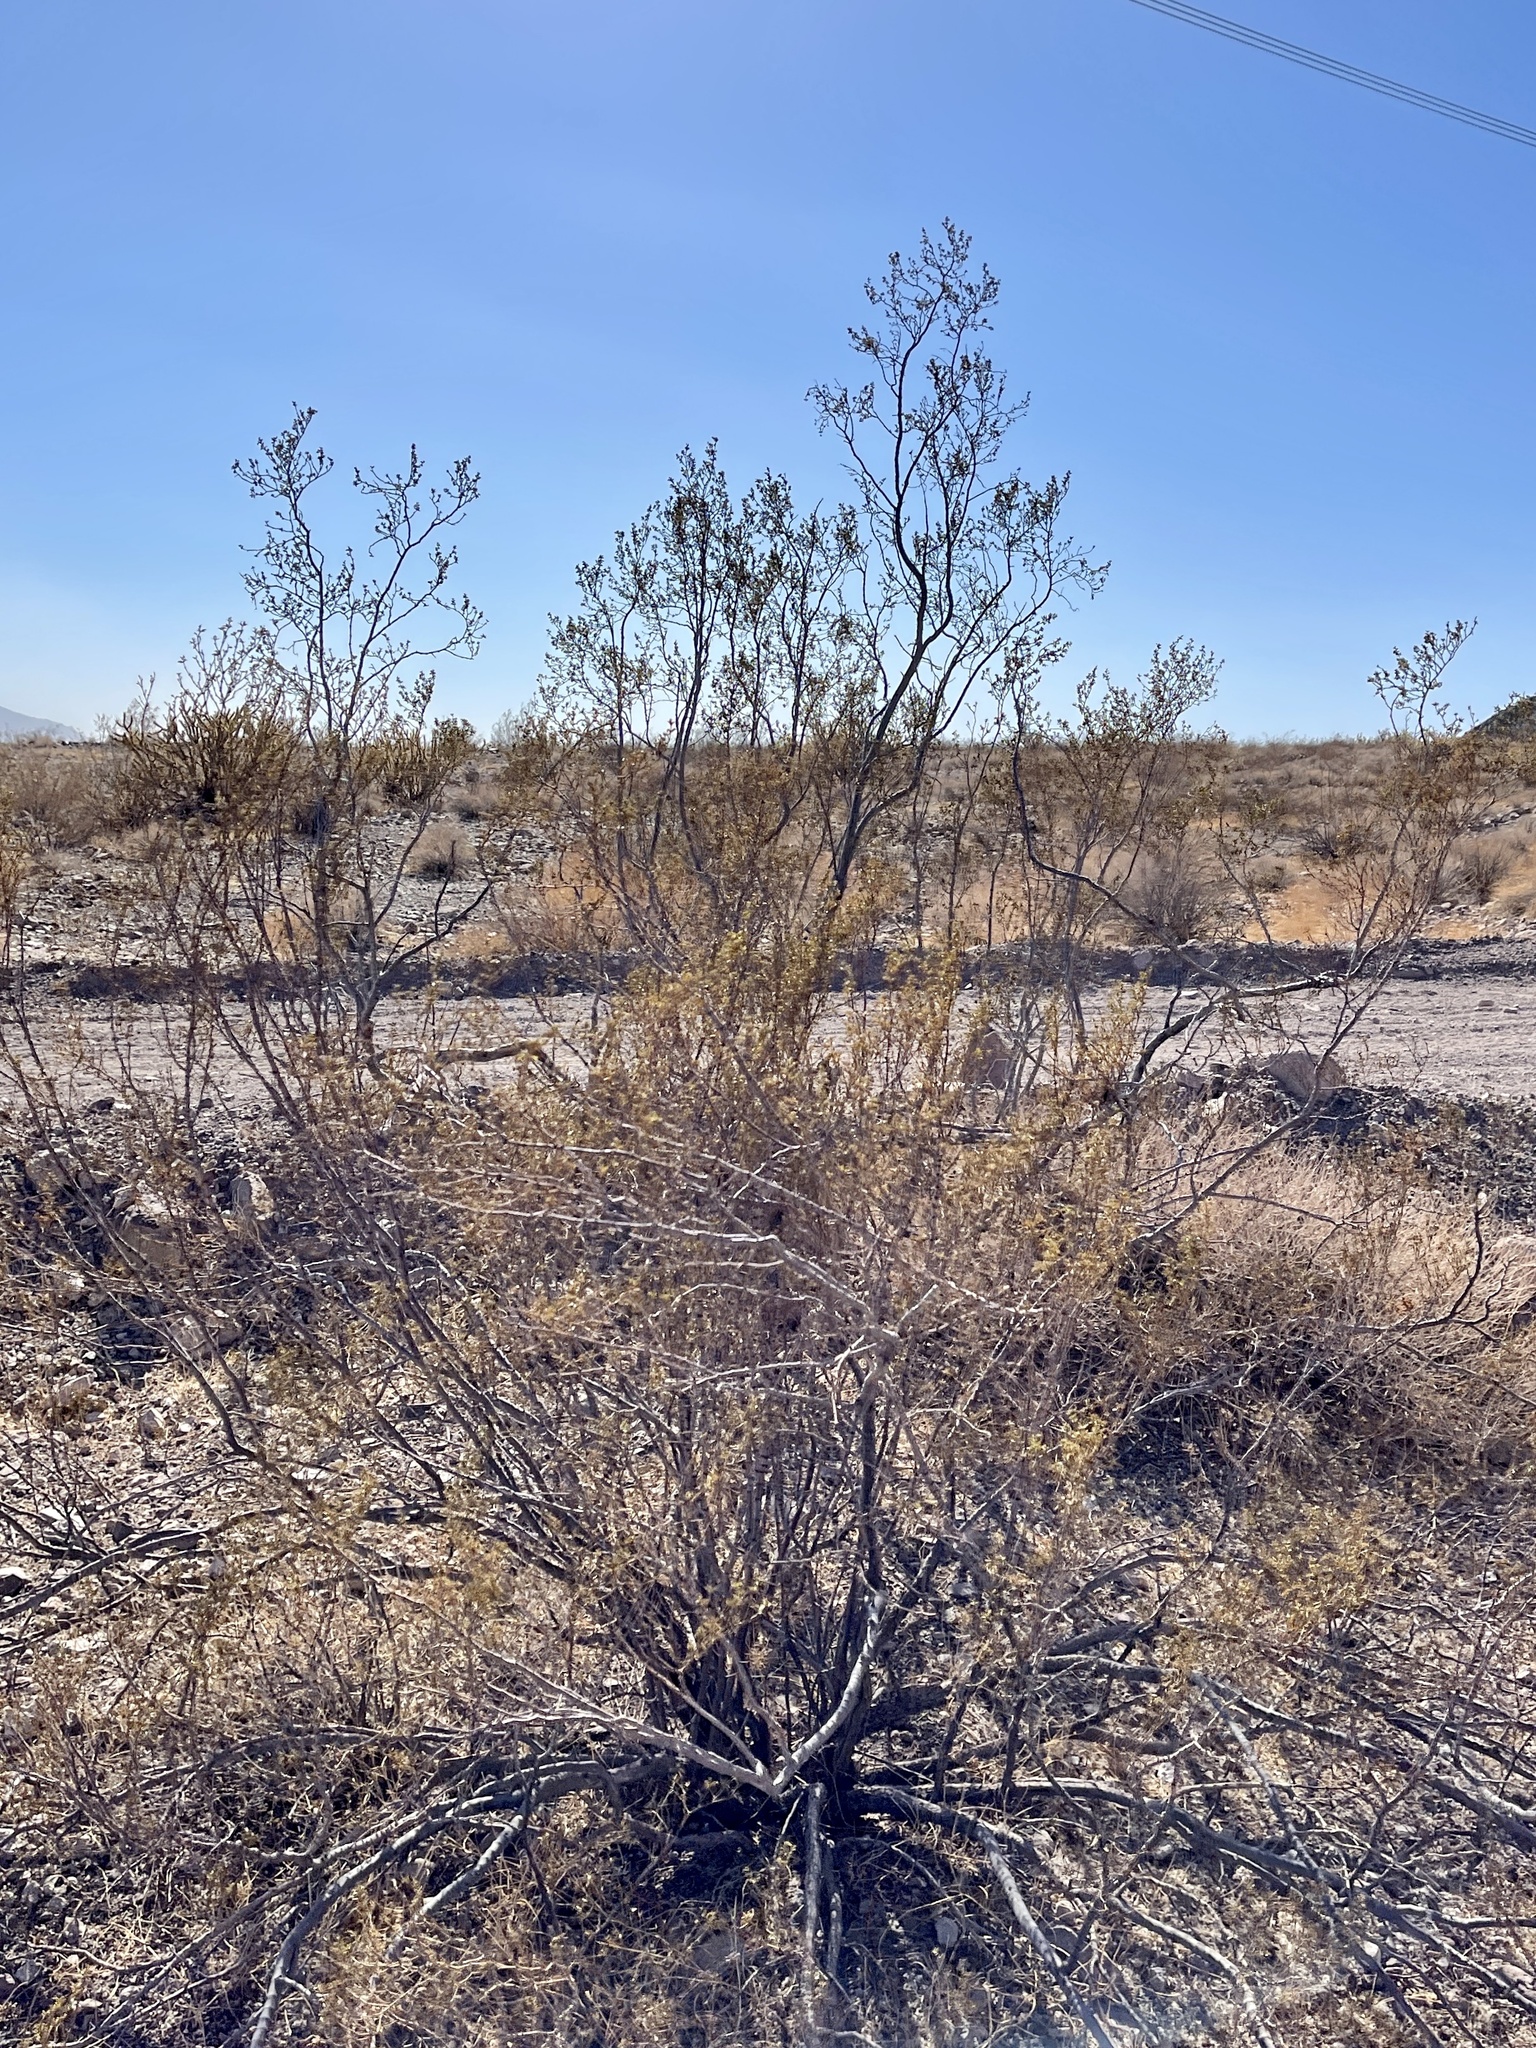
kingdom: Plantae
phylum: Tracheophyta
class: Magnoliopsida
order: Zygophyllales
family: Zygophyllaceae
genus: Larrea
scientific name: Larrea tridentata
